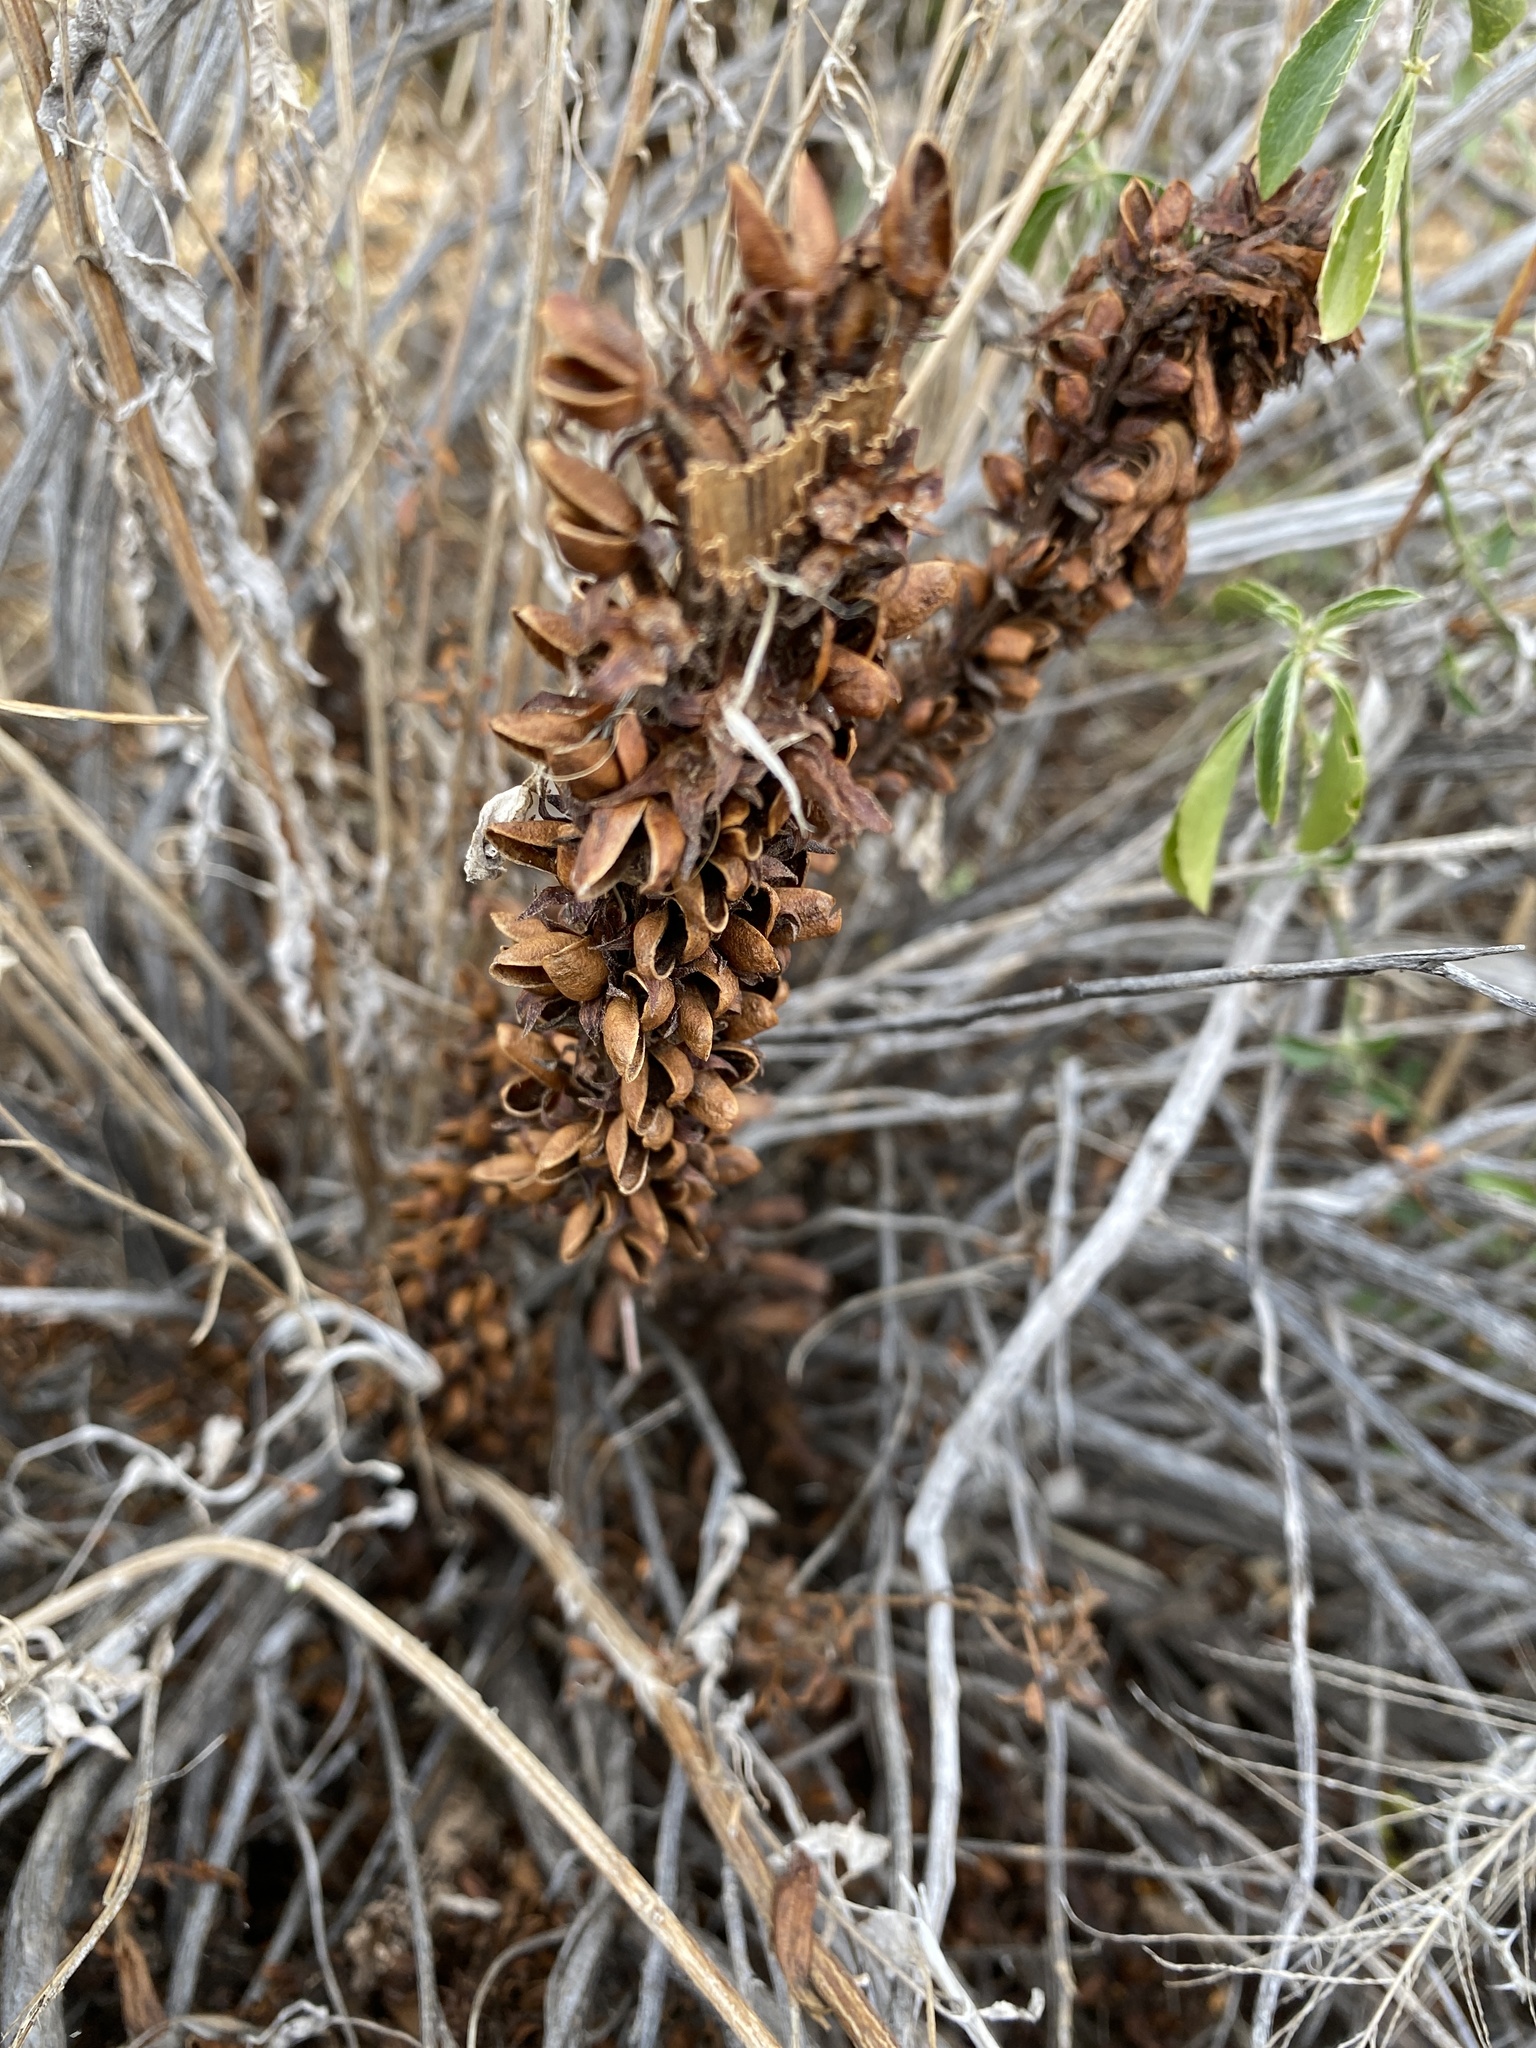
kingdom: Plantae
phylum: Tracheophyta
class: Magnoliopsida
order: Lamiales
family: Orobanchaceae
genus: Aphyllon
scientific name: Aphyllon cooperi
